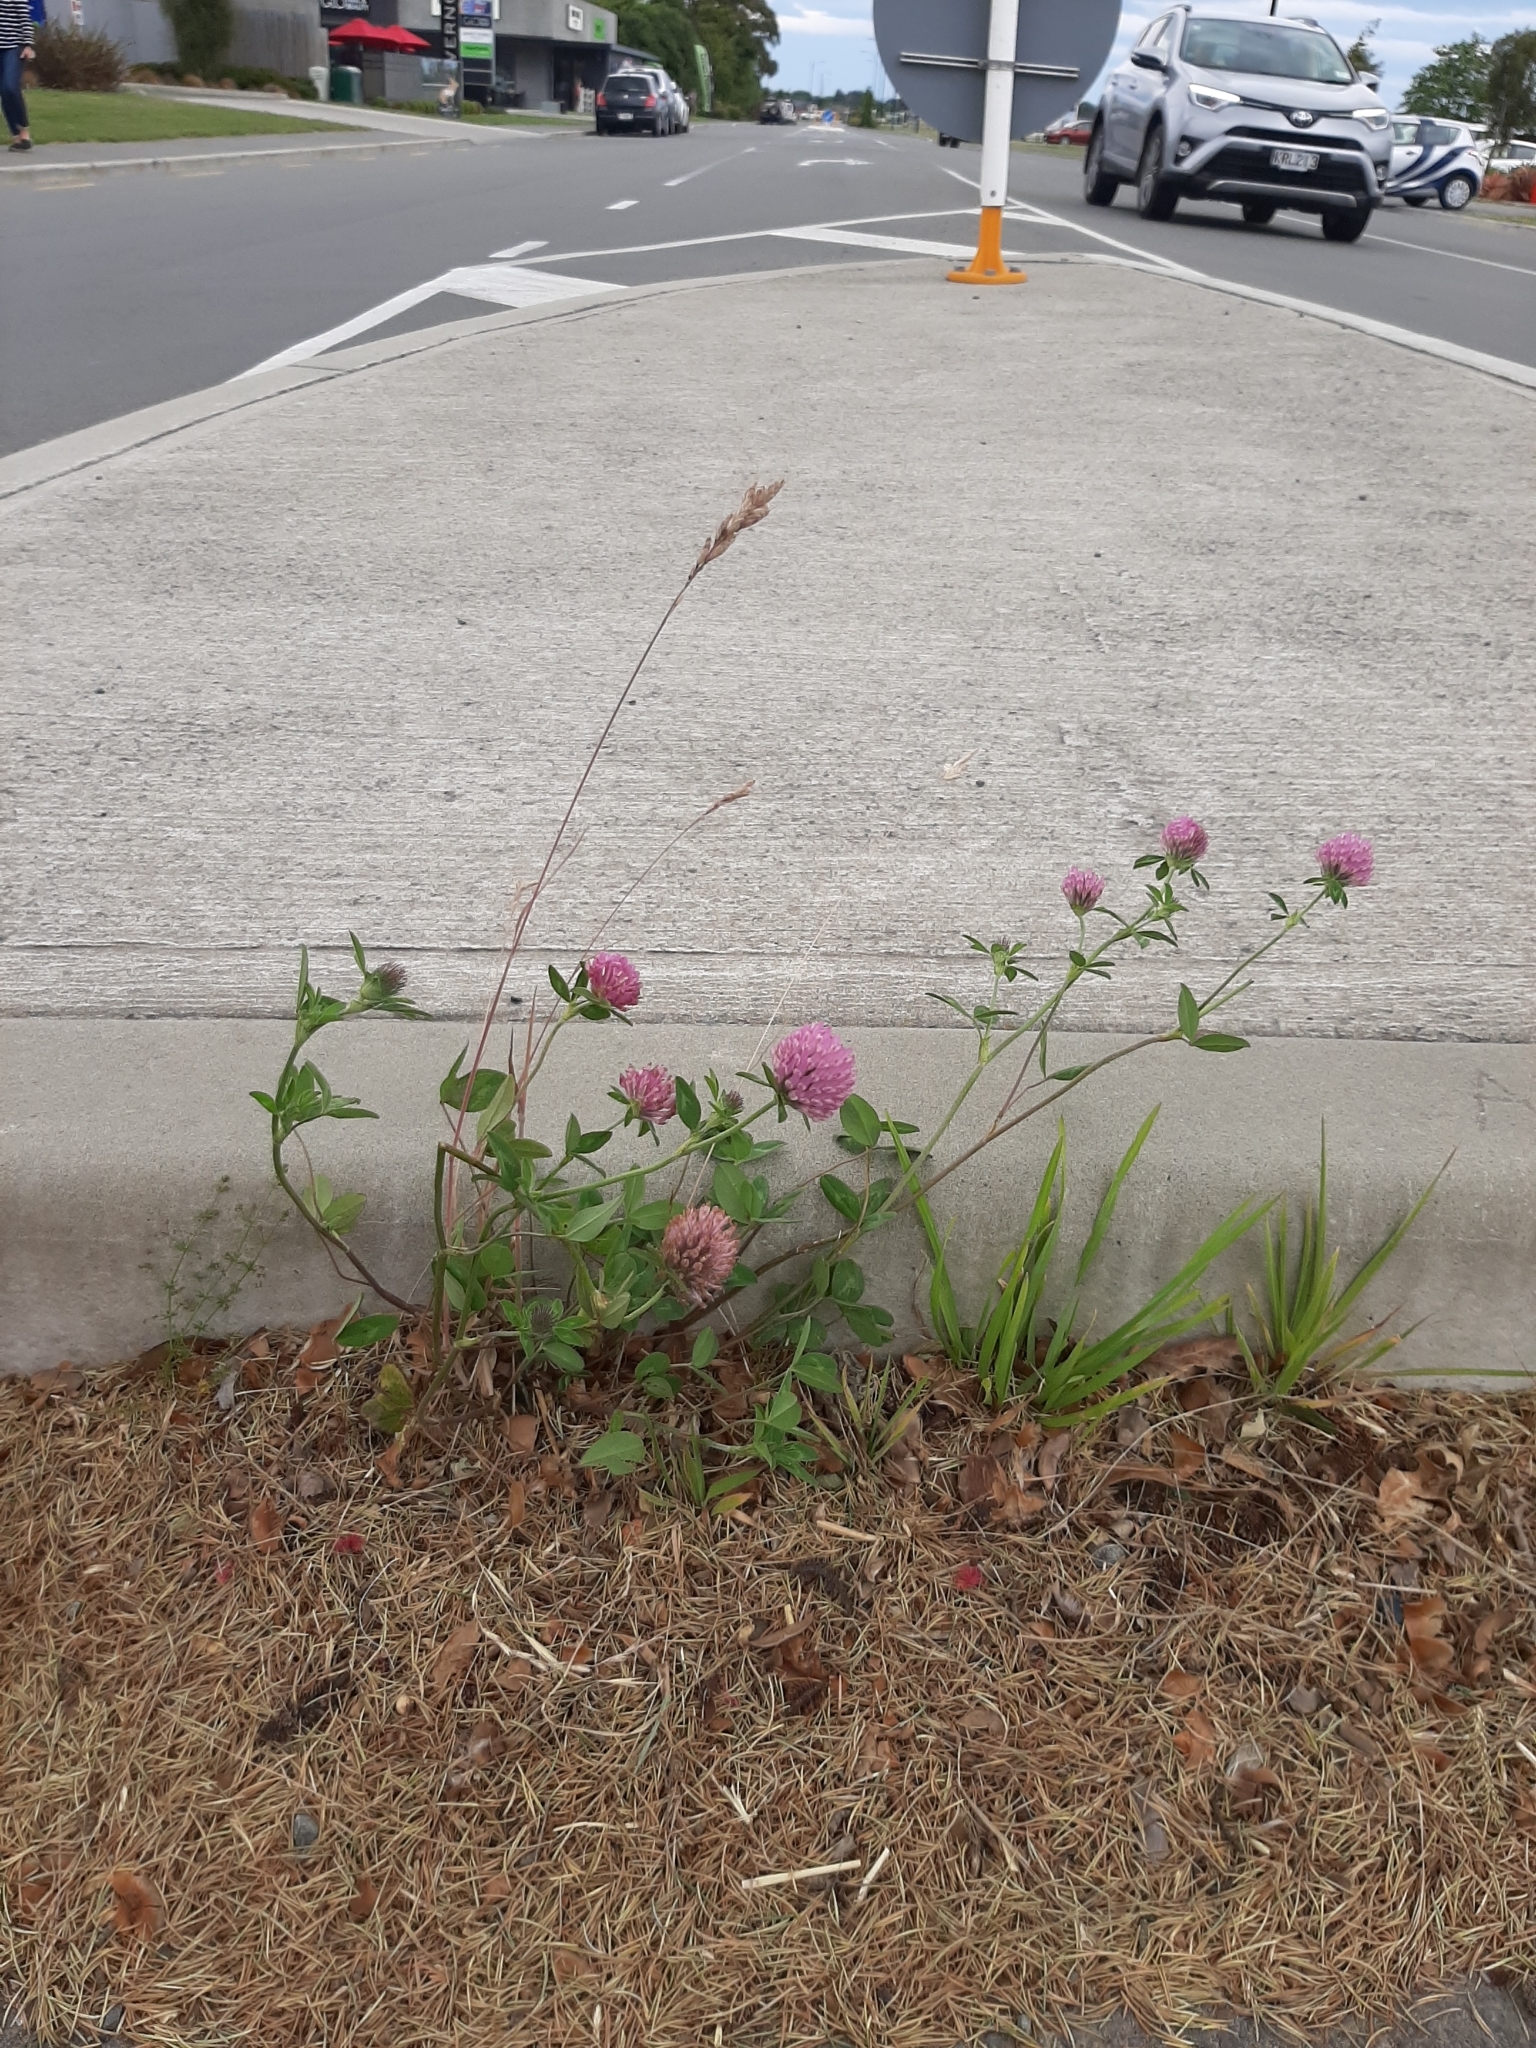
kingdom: Plantae
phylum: Tracheophyta
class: Magnoliopsida
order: Fabales
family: Fabaceae
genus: Trifolium
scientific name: Trifolium pratense
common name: Red clover
